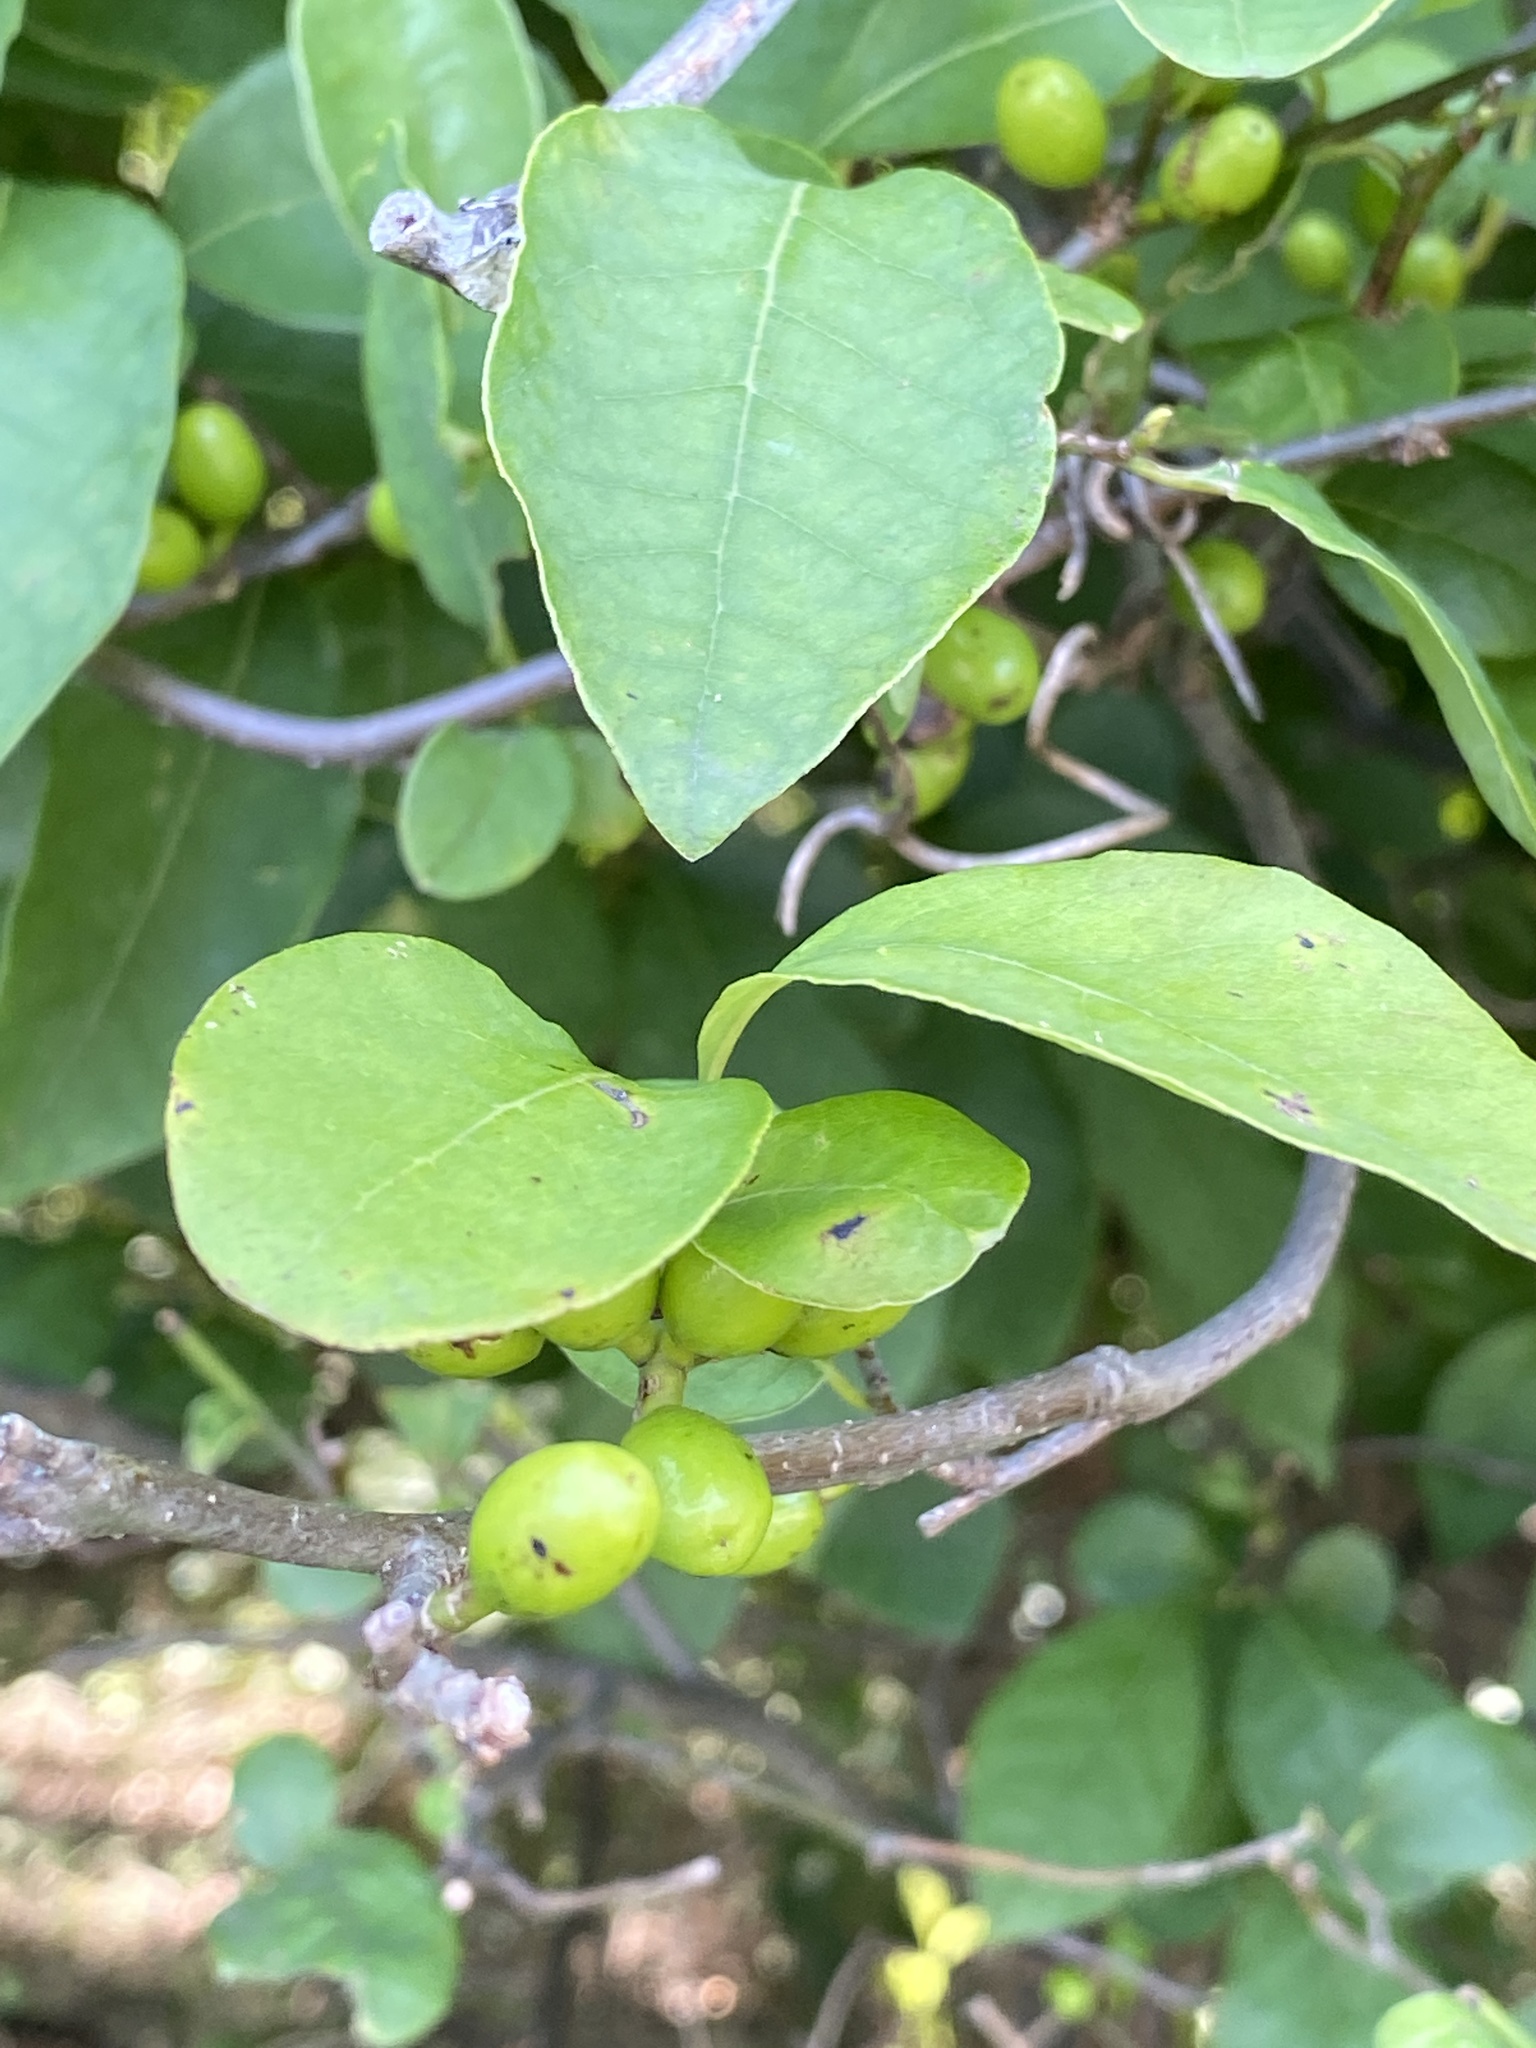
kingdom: Plantae
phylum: Tracheophyta
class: Magnoliopsida
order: Laurales
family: Lauraceae
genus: Lindera
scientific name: Lindera benzoin
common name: Spicebush
